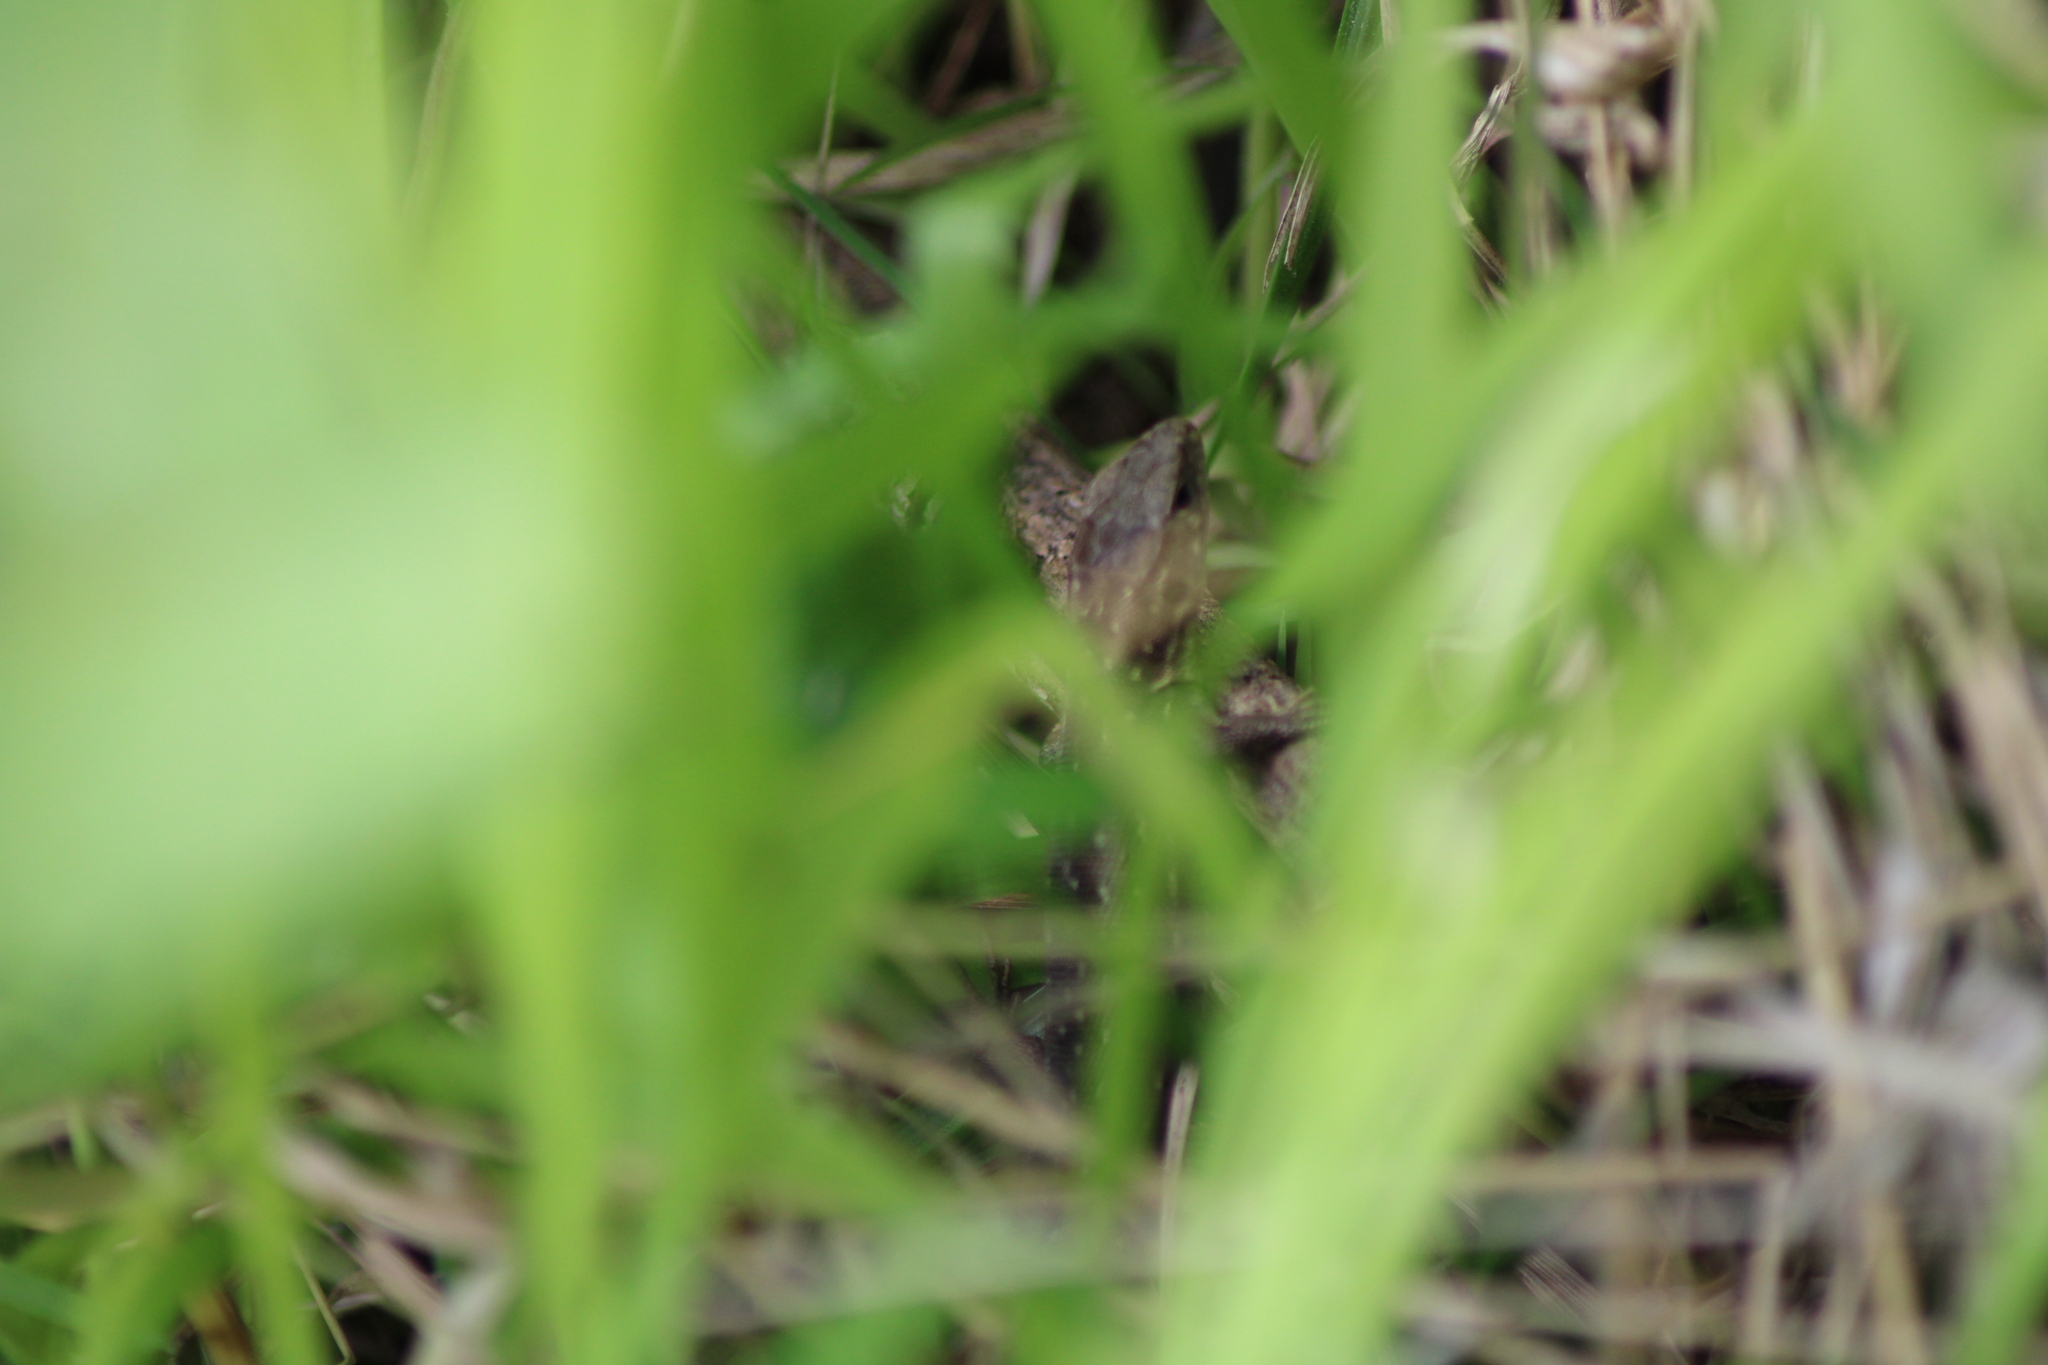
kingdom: Animalia
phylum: Chordata
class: Squamata
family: Lacertidae
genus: Lacerta
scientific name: Lacerta agilis
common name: Sand lizard
